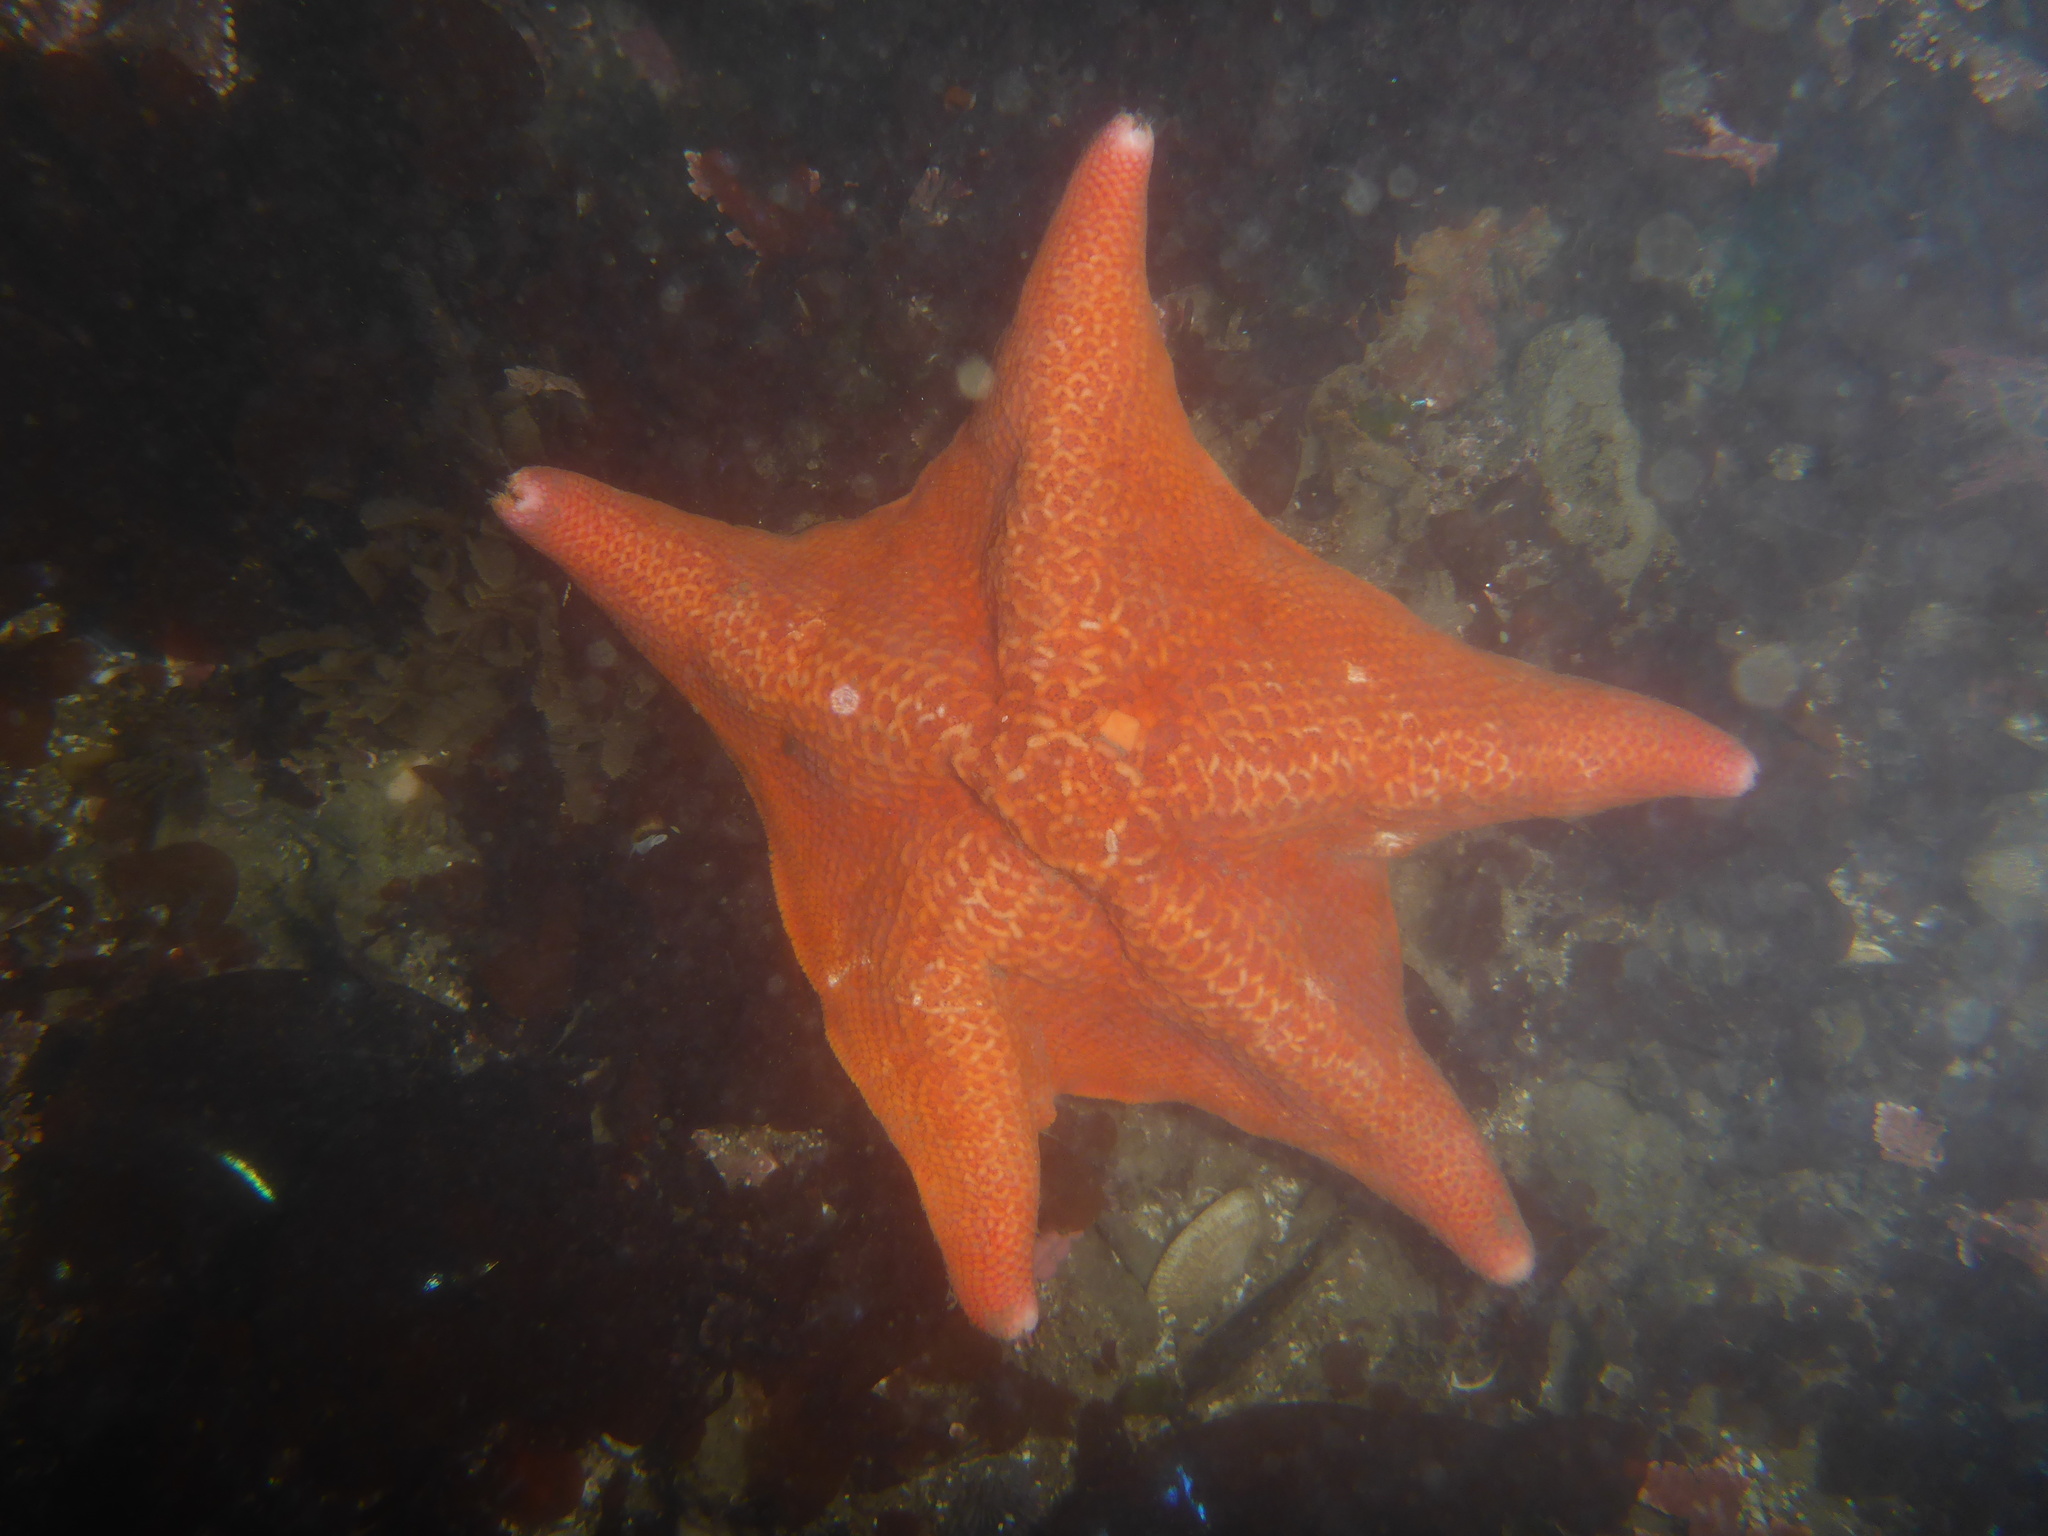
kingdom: Animalia
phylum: Echinodermata
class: Asteroidea
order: Valvatida
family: Asterinidae
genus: Patiria
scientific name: Patiria miniata
